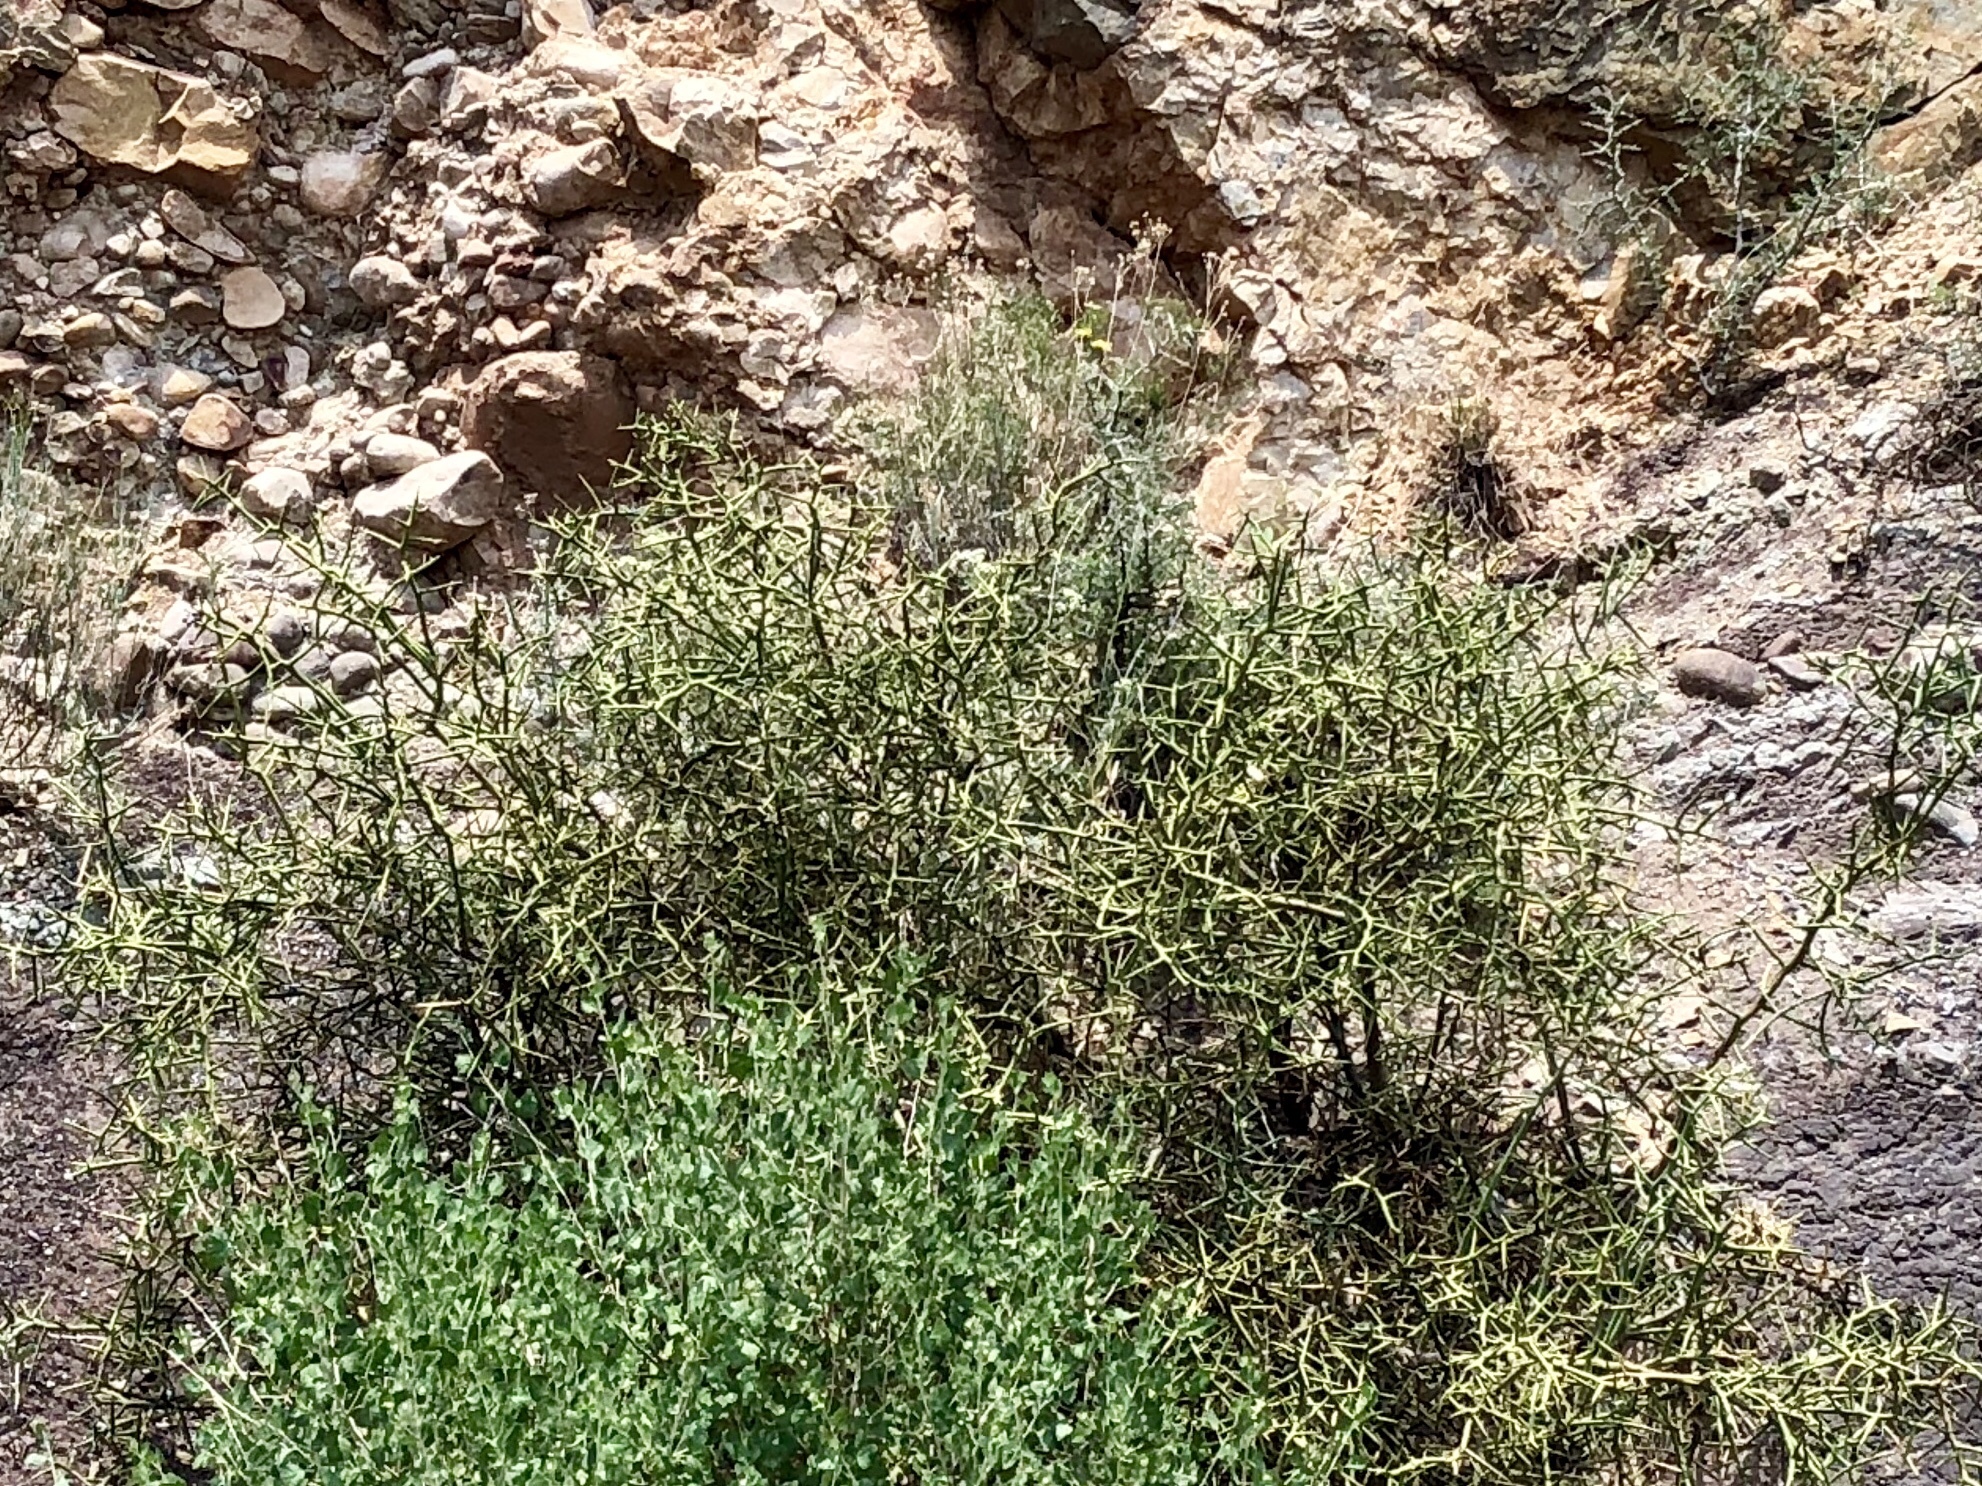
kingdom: Plantae
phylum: Tracheophyta
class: Magnoliopsida
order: Brassicales
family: Koeberliniaceae
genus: Koeberlinia
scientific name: Koeberlinia spinosa
